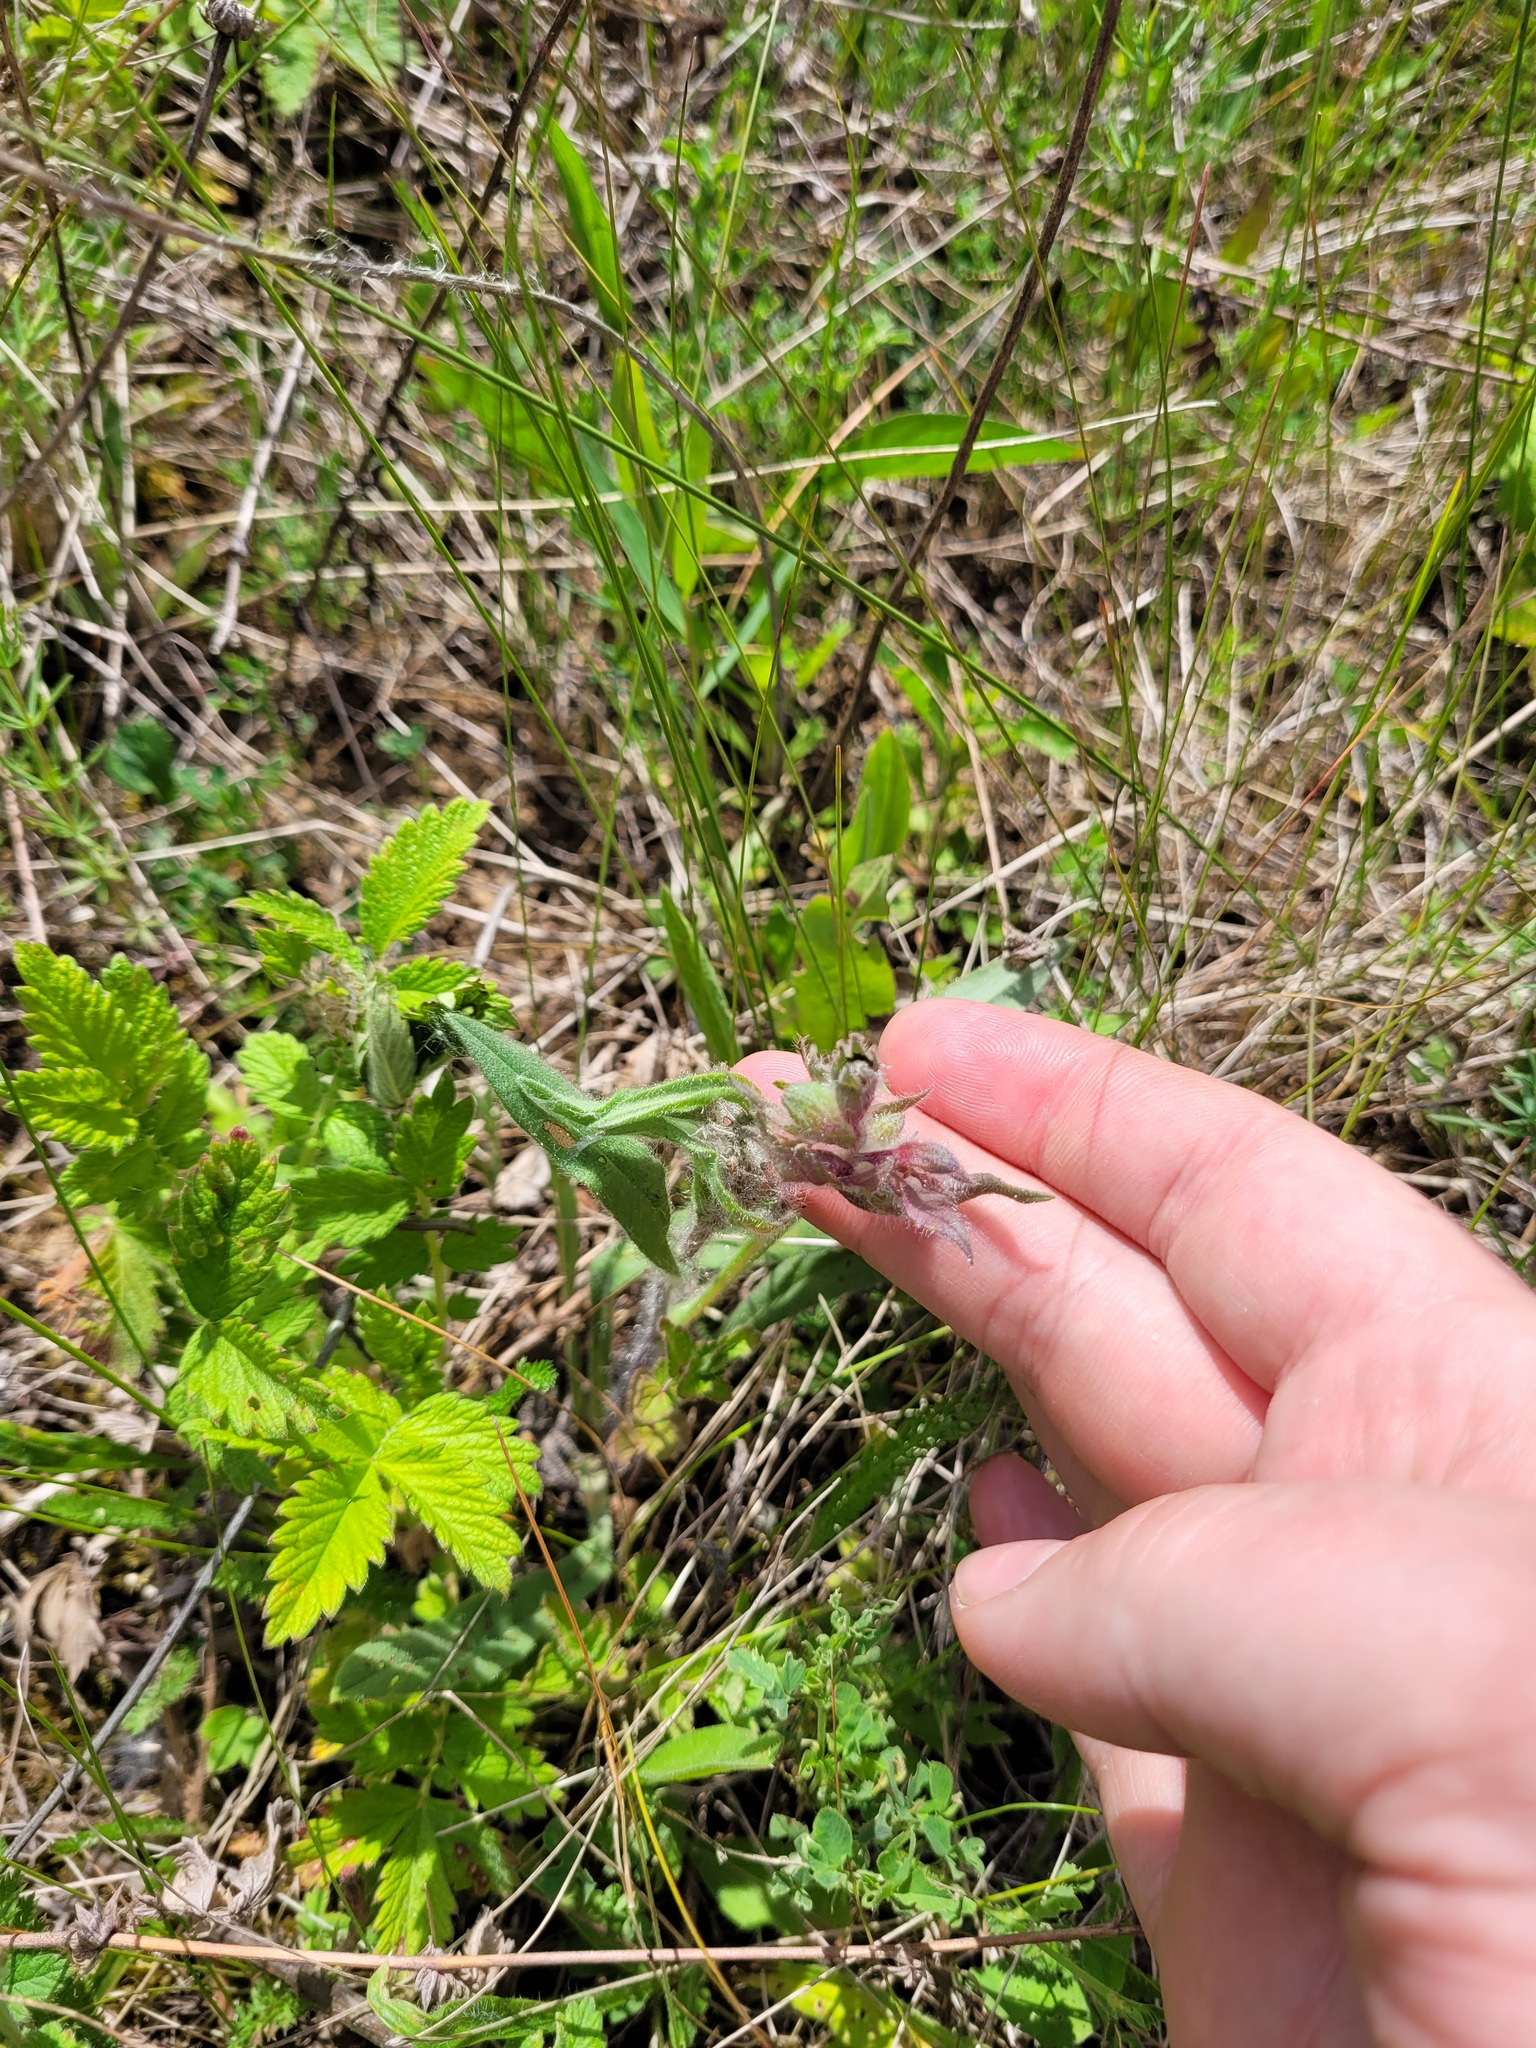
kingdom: Plantae
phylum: Tracheophyta
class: Magnoliopsida
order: Boraginales
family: Boraginaceae
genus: Nonea
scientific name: Nonea pulla
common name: Brown nonea
